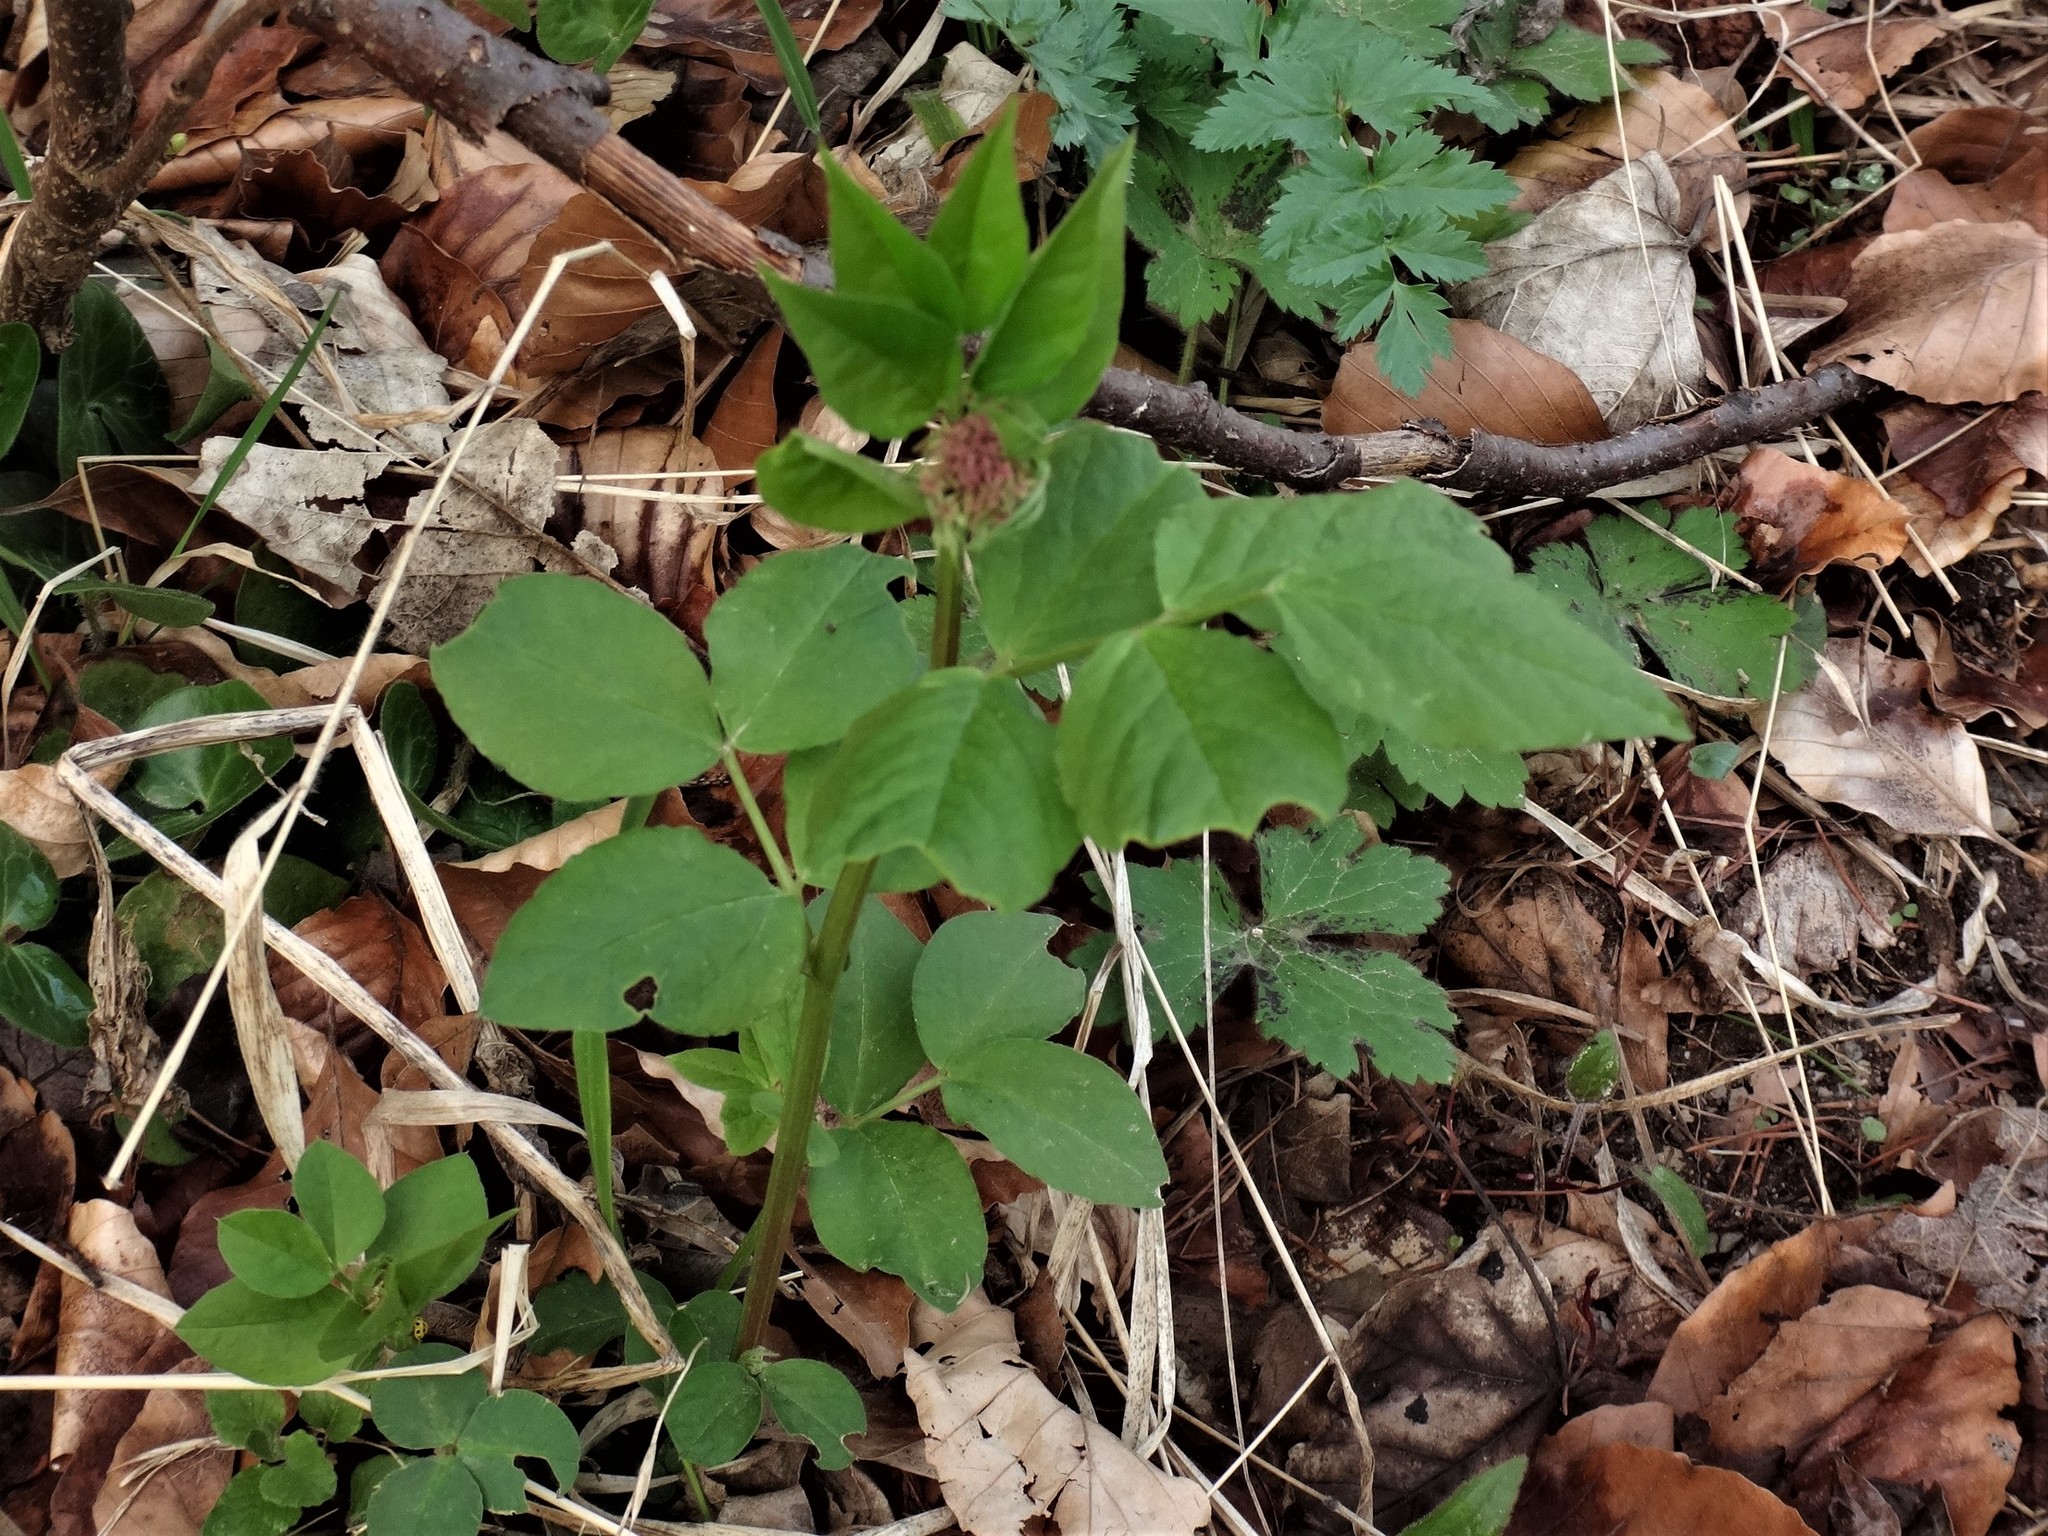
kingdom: Plantae
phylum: Tracheophyta
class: Magnoliopsida
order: Fabales
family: Fabaceae
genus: Vicia
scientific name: Vicia oroboides
